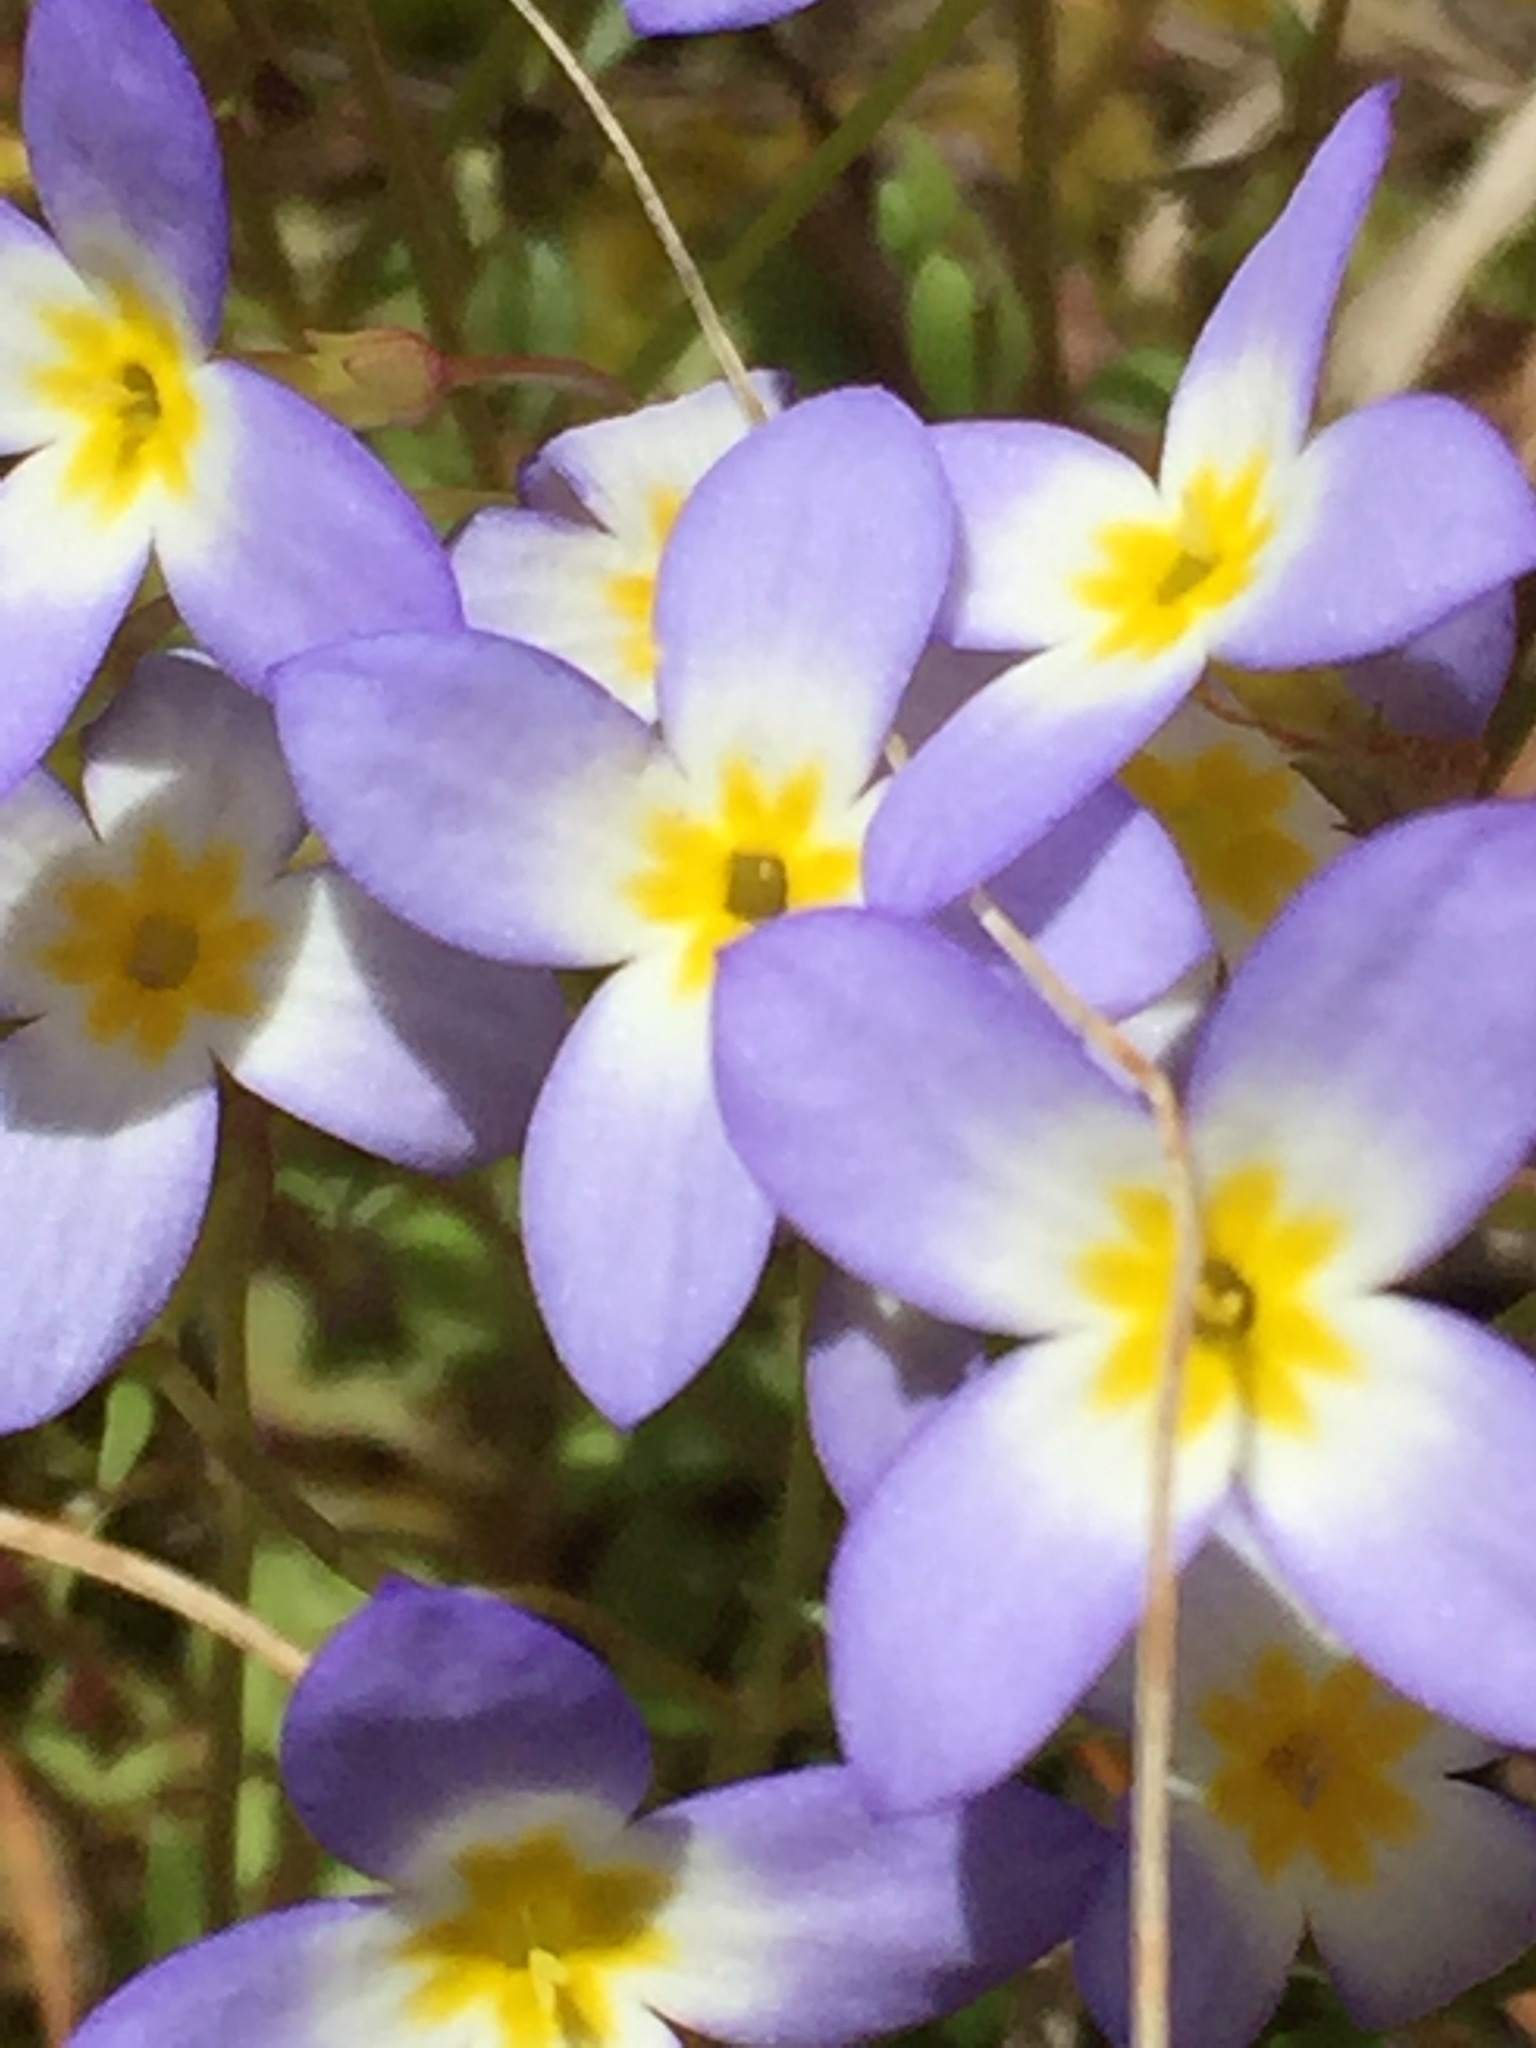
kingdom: Plantae
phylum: Tracheophyta
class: Magnoliopsida
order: Gentianales
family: Rubiaceae
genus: Houstonia
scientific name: Houstonia caerulea
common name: Bluets
